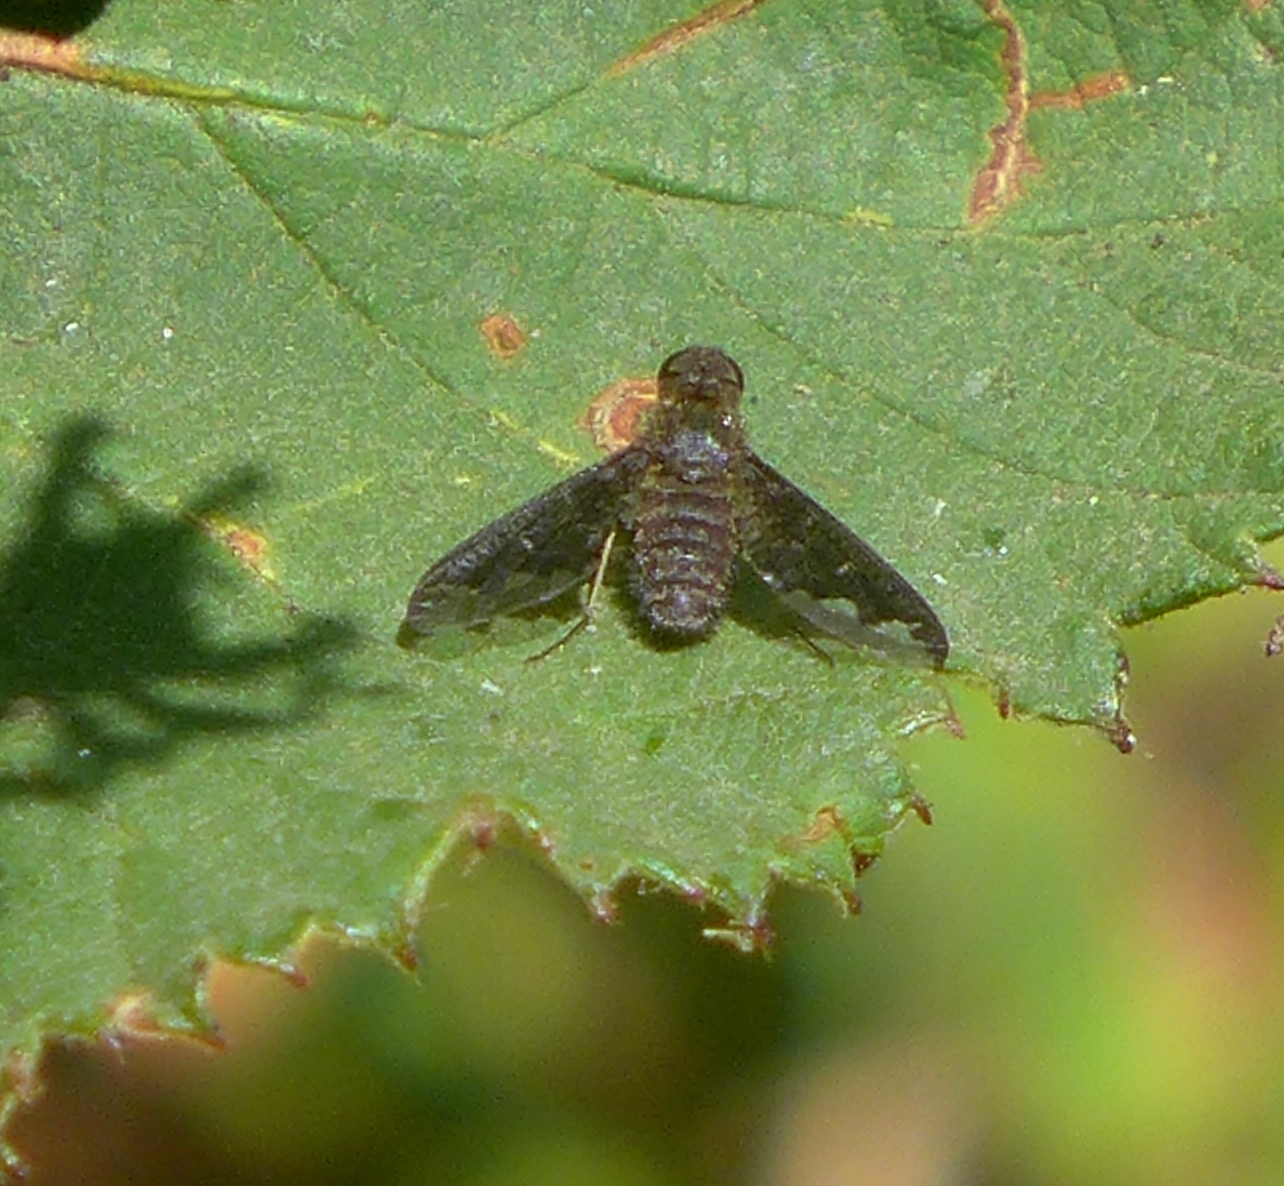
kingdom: Animalia
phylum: Arthropoda
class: Insecta
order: Diptera
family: Bombyliidae
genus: Hemipenthes
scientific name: Hemipenthes
